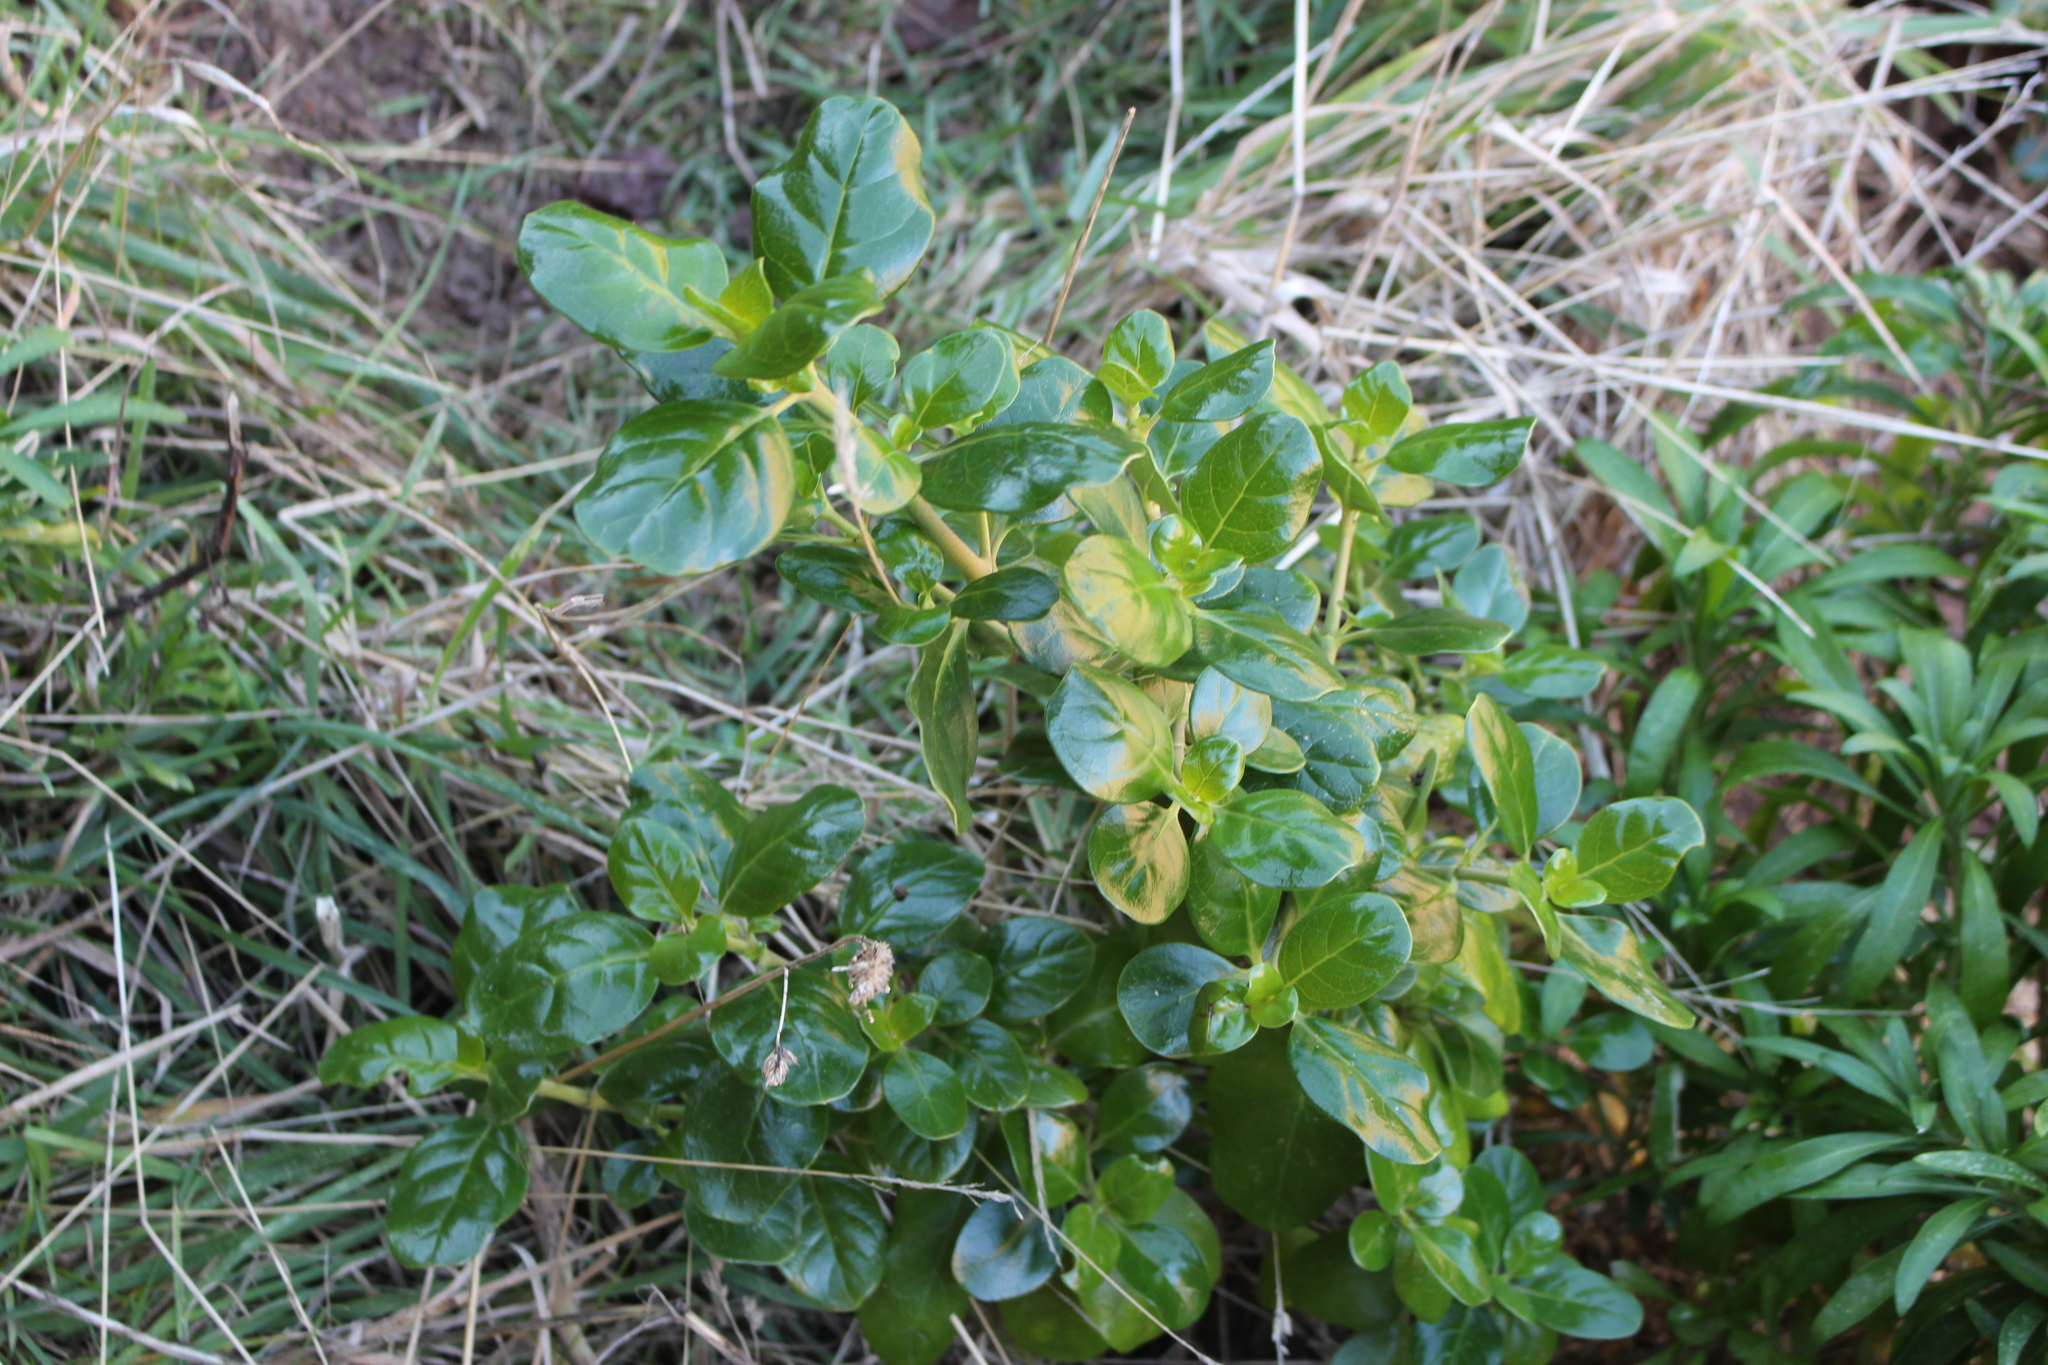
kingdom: Plantae
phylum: Tracheophyta
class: Magnoliopsida
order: Gentianales
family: Rubiaceae
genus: Coprosma
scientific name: Coprosma repens
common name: Tree bedstraw
